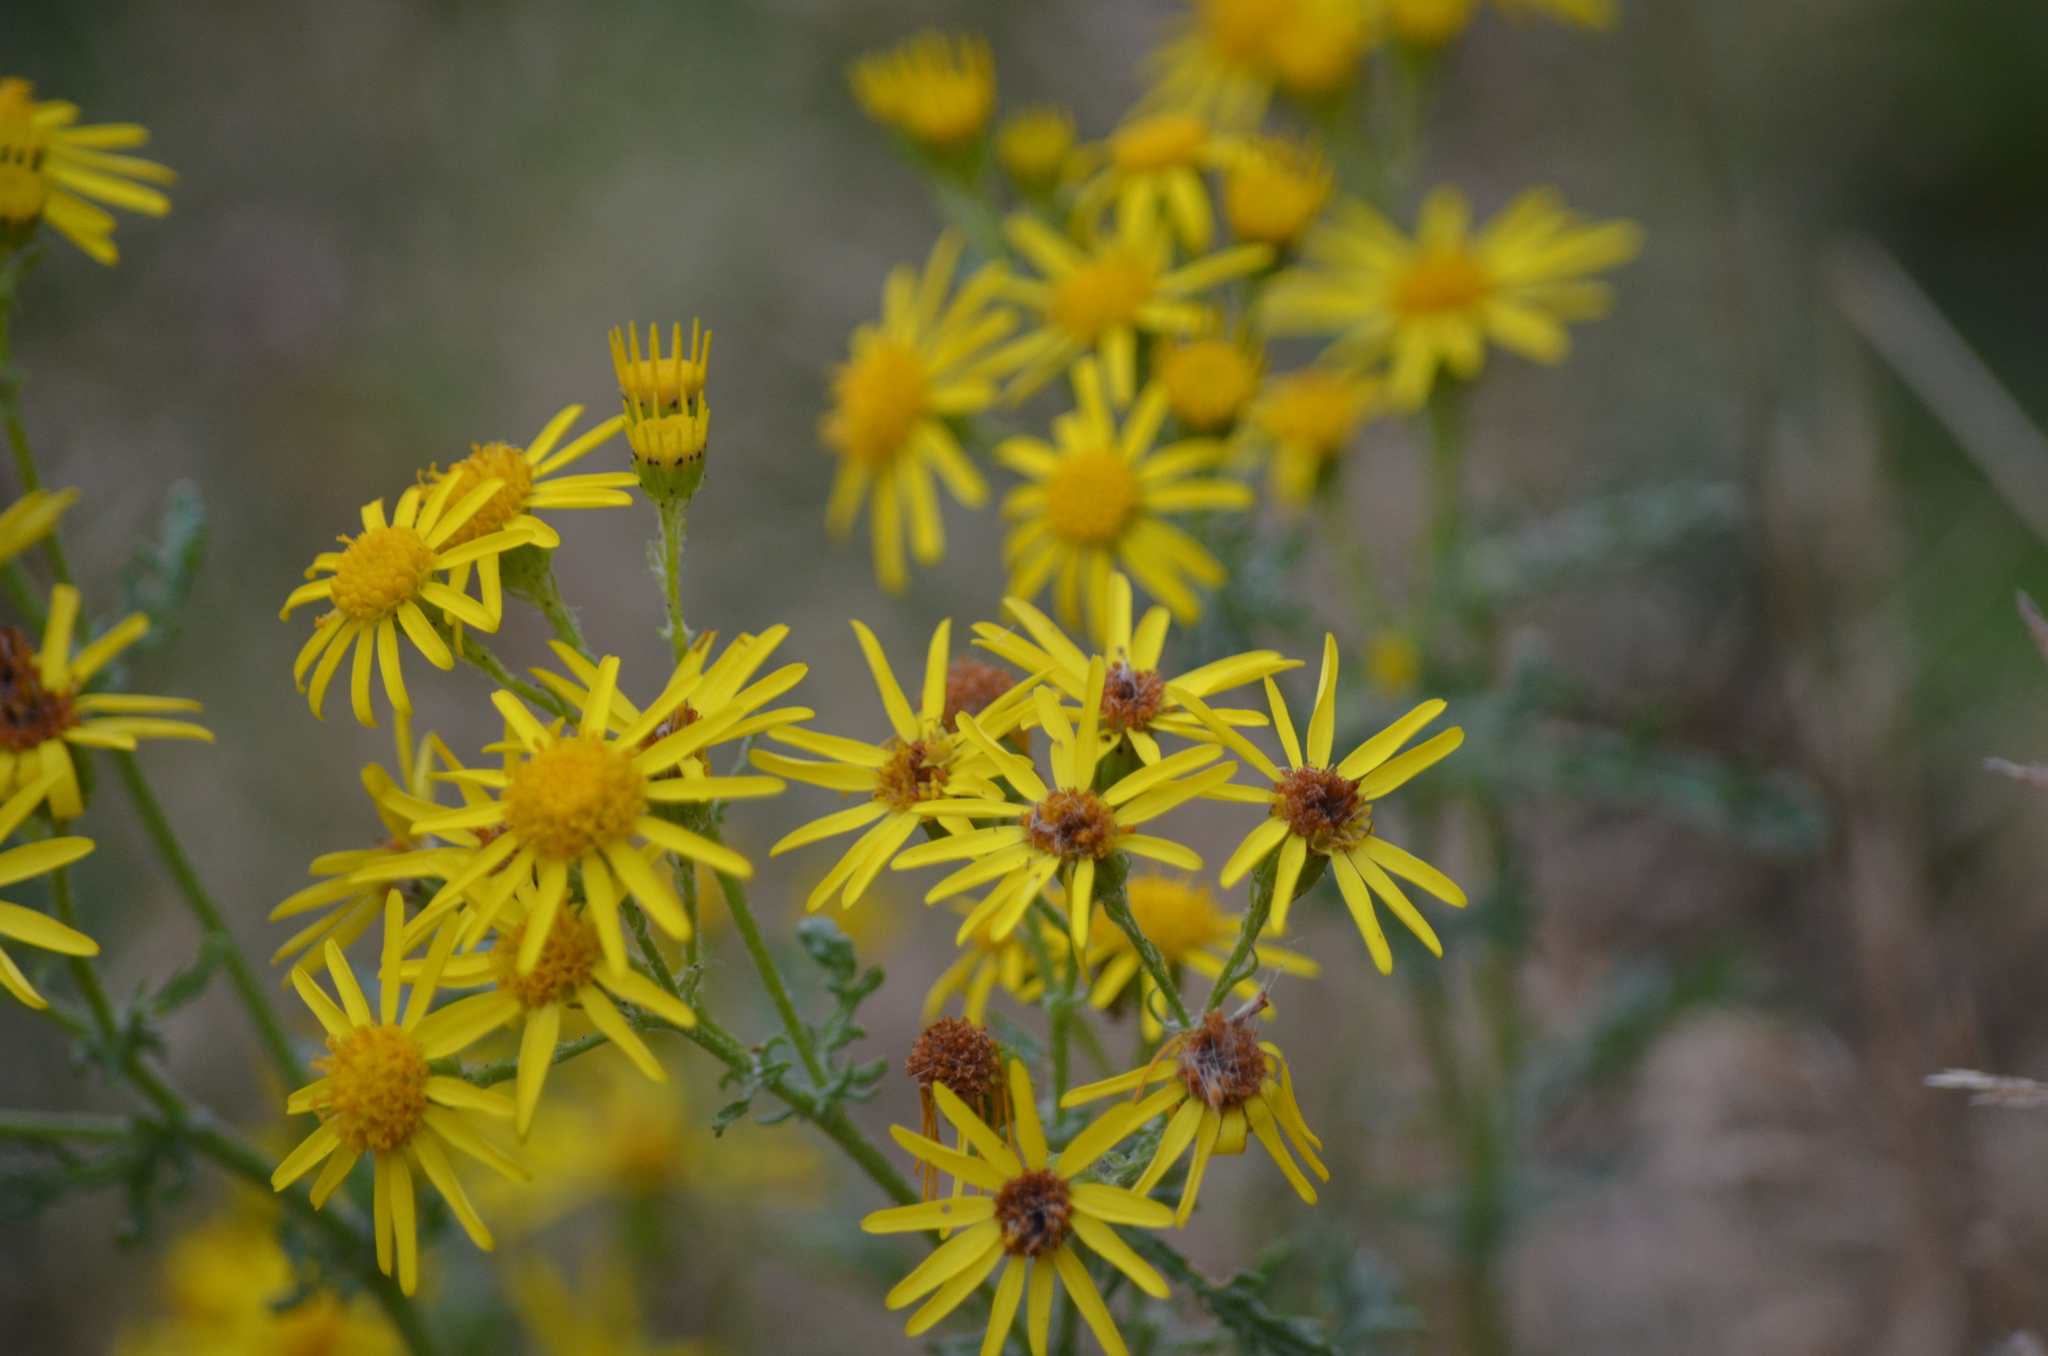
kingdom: Plantae
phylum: Tracheophyta
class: Magnoliopsida
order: Asterales
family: Asteraceae
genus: Jacobaea
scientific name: Jacobaea vulgaris
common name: Stinking willie
